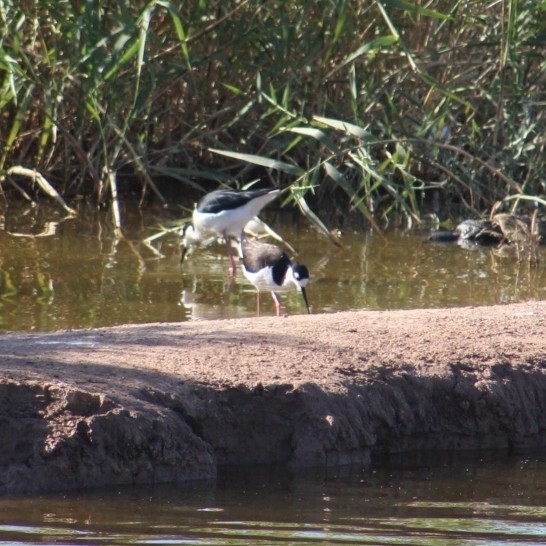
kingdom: Animalia
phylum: Chordata
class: Aves
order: Charadriiformes
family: Recurvirostridae
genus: Himantopus
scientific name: Himantopus mexicanus
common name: Black-necked stilt
